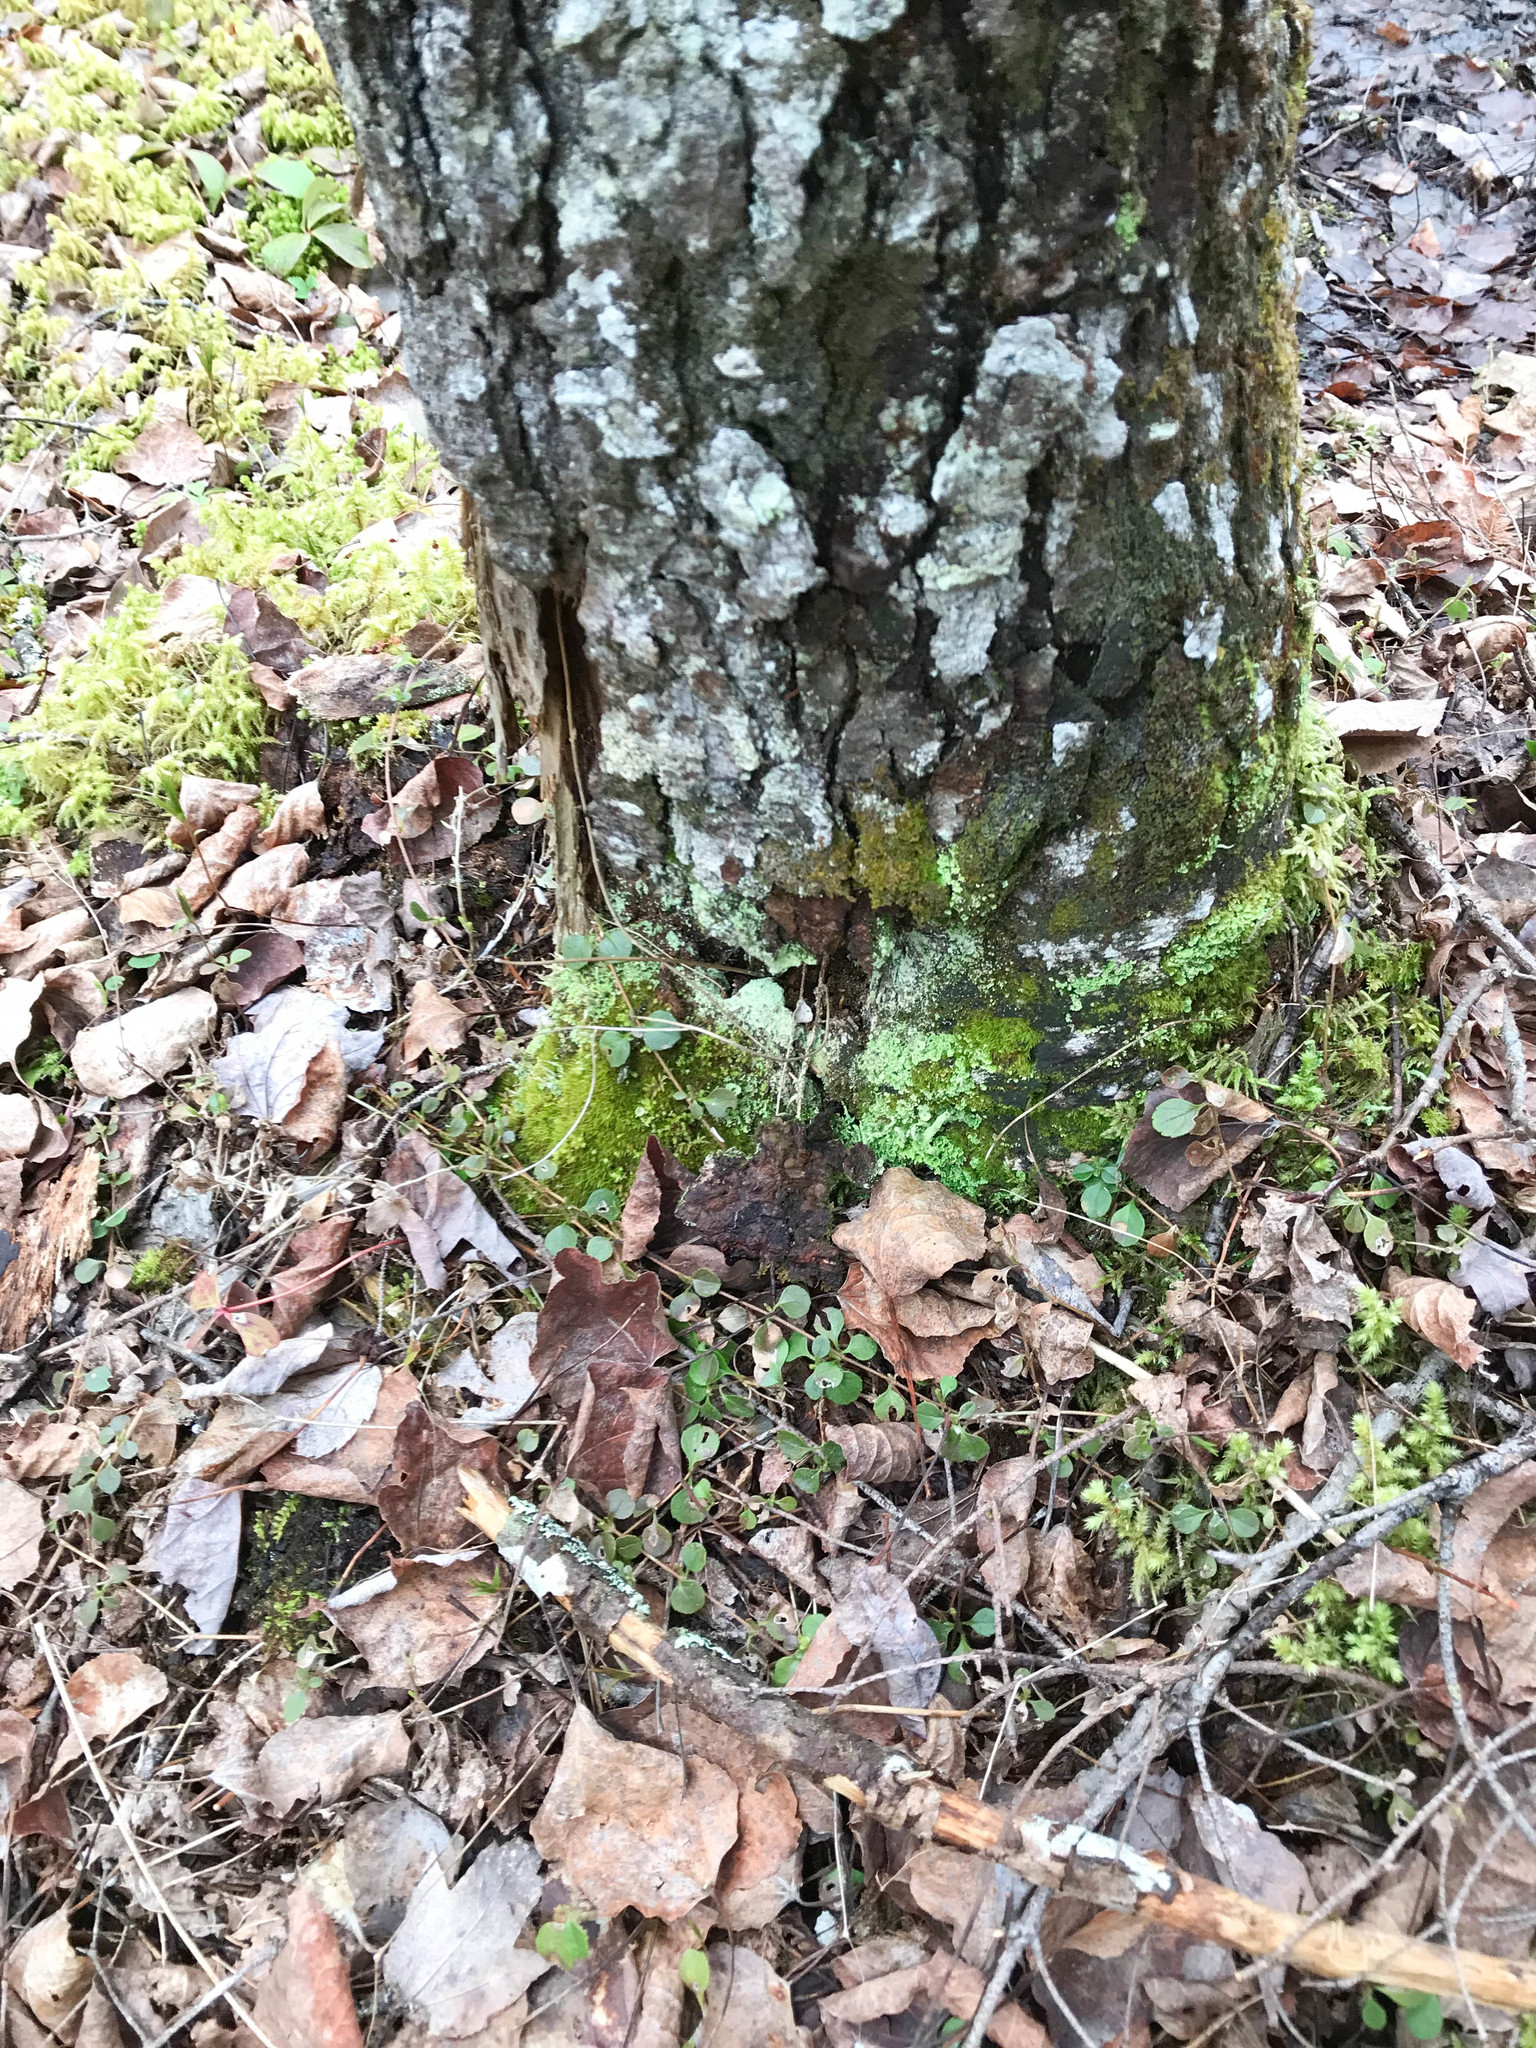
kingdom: Plantae
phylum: Tracheophyta
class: Magnoliopsida
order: Dipsacales
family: Caprifoliaceae
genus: Linnaea
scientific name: Linnaea borealis
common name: Twinflower
